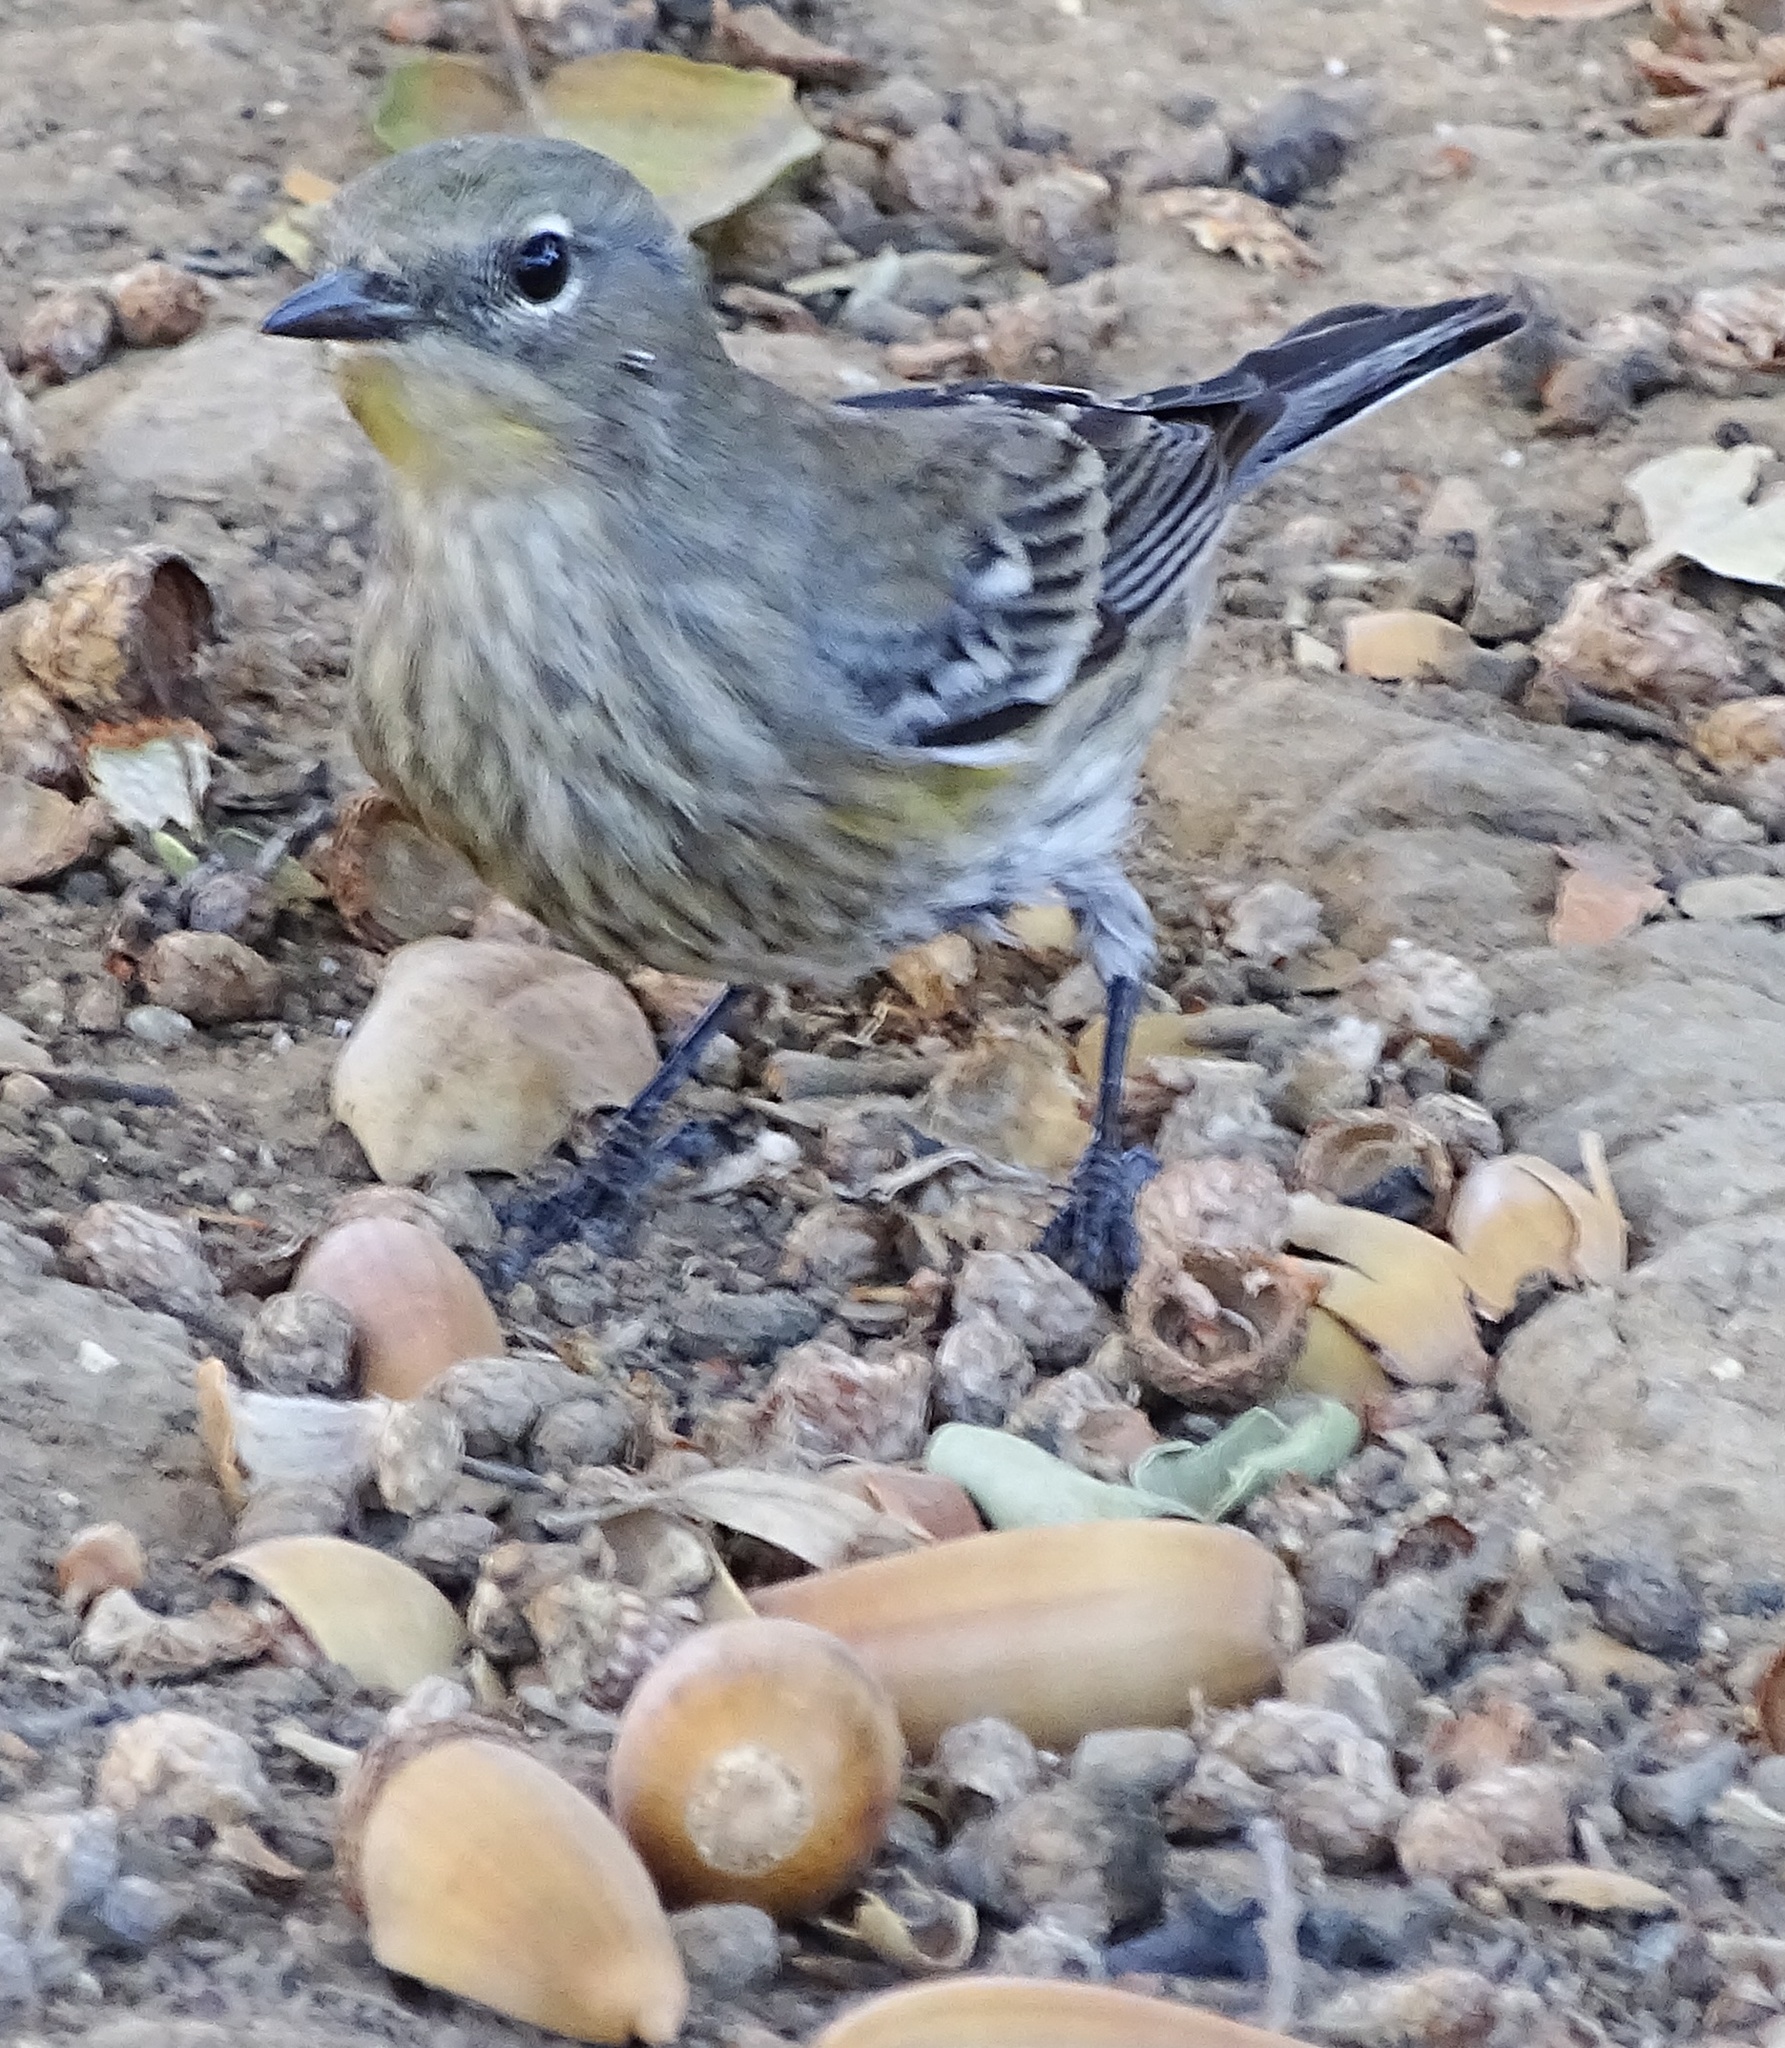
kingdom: Animalia
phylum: Chordata
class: Aves
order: Passeriformes
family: Parulidae
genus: Setophaga
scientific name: Setophaga coronata
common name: Myrtle warbler
